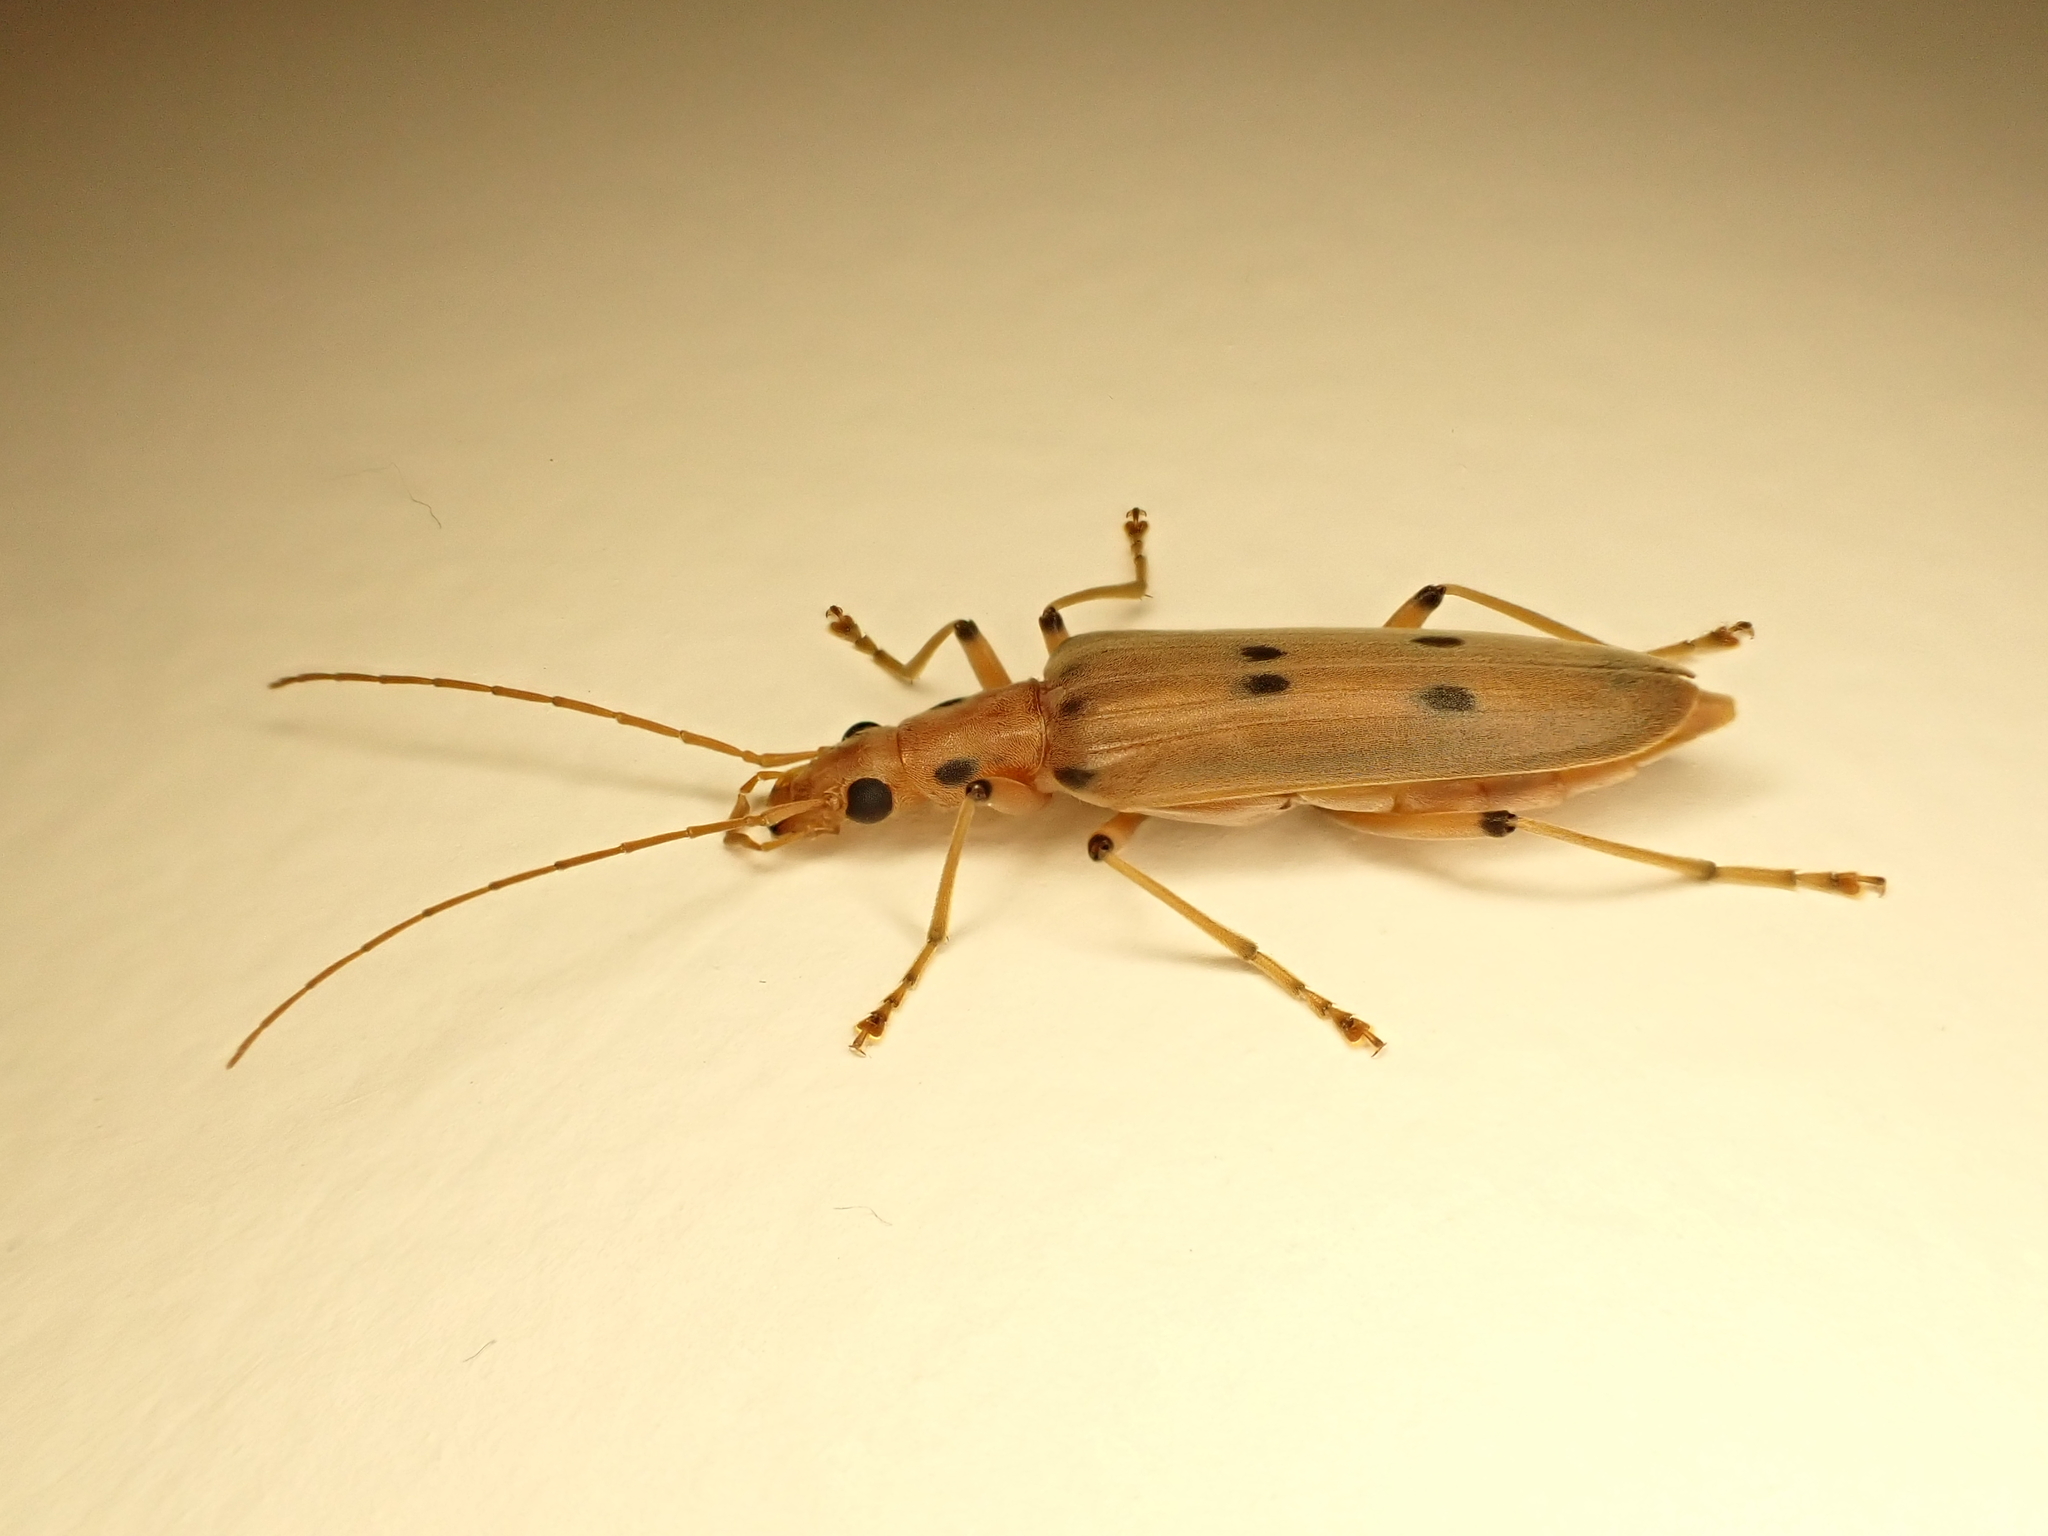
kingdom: Animalia
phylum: Arthropoda
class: Insecta
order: Coleoptera
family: Oedemeridae
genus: Parisopalpus
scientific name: Parisopalpus
